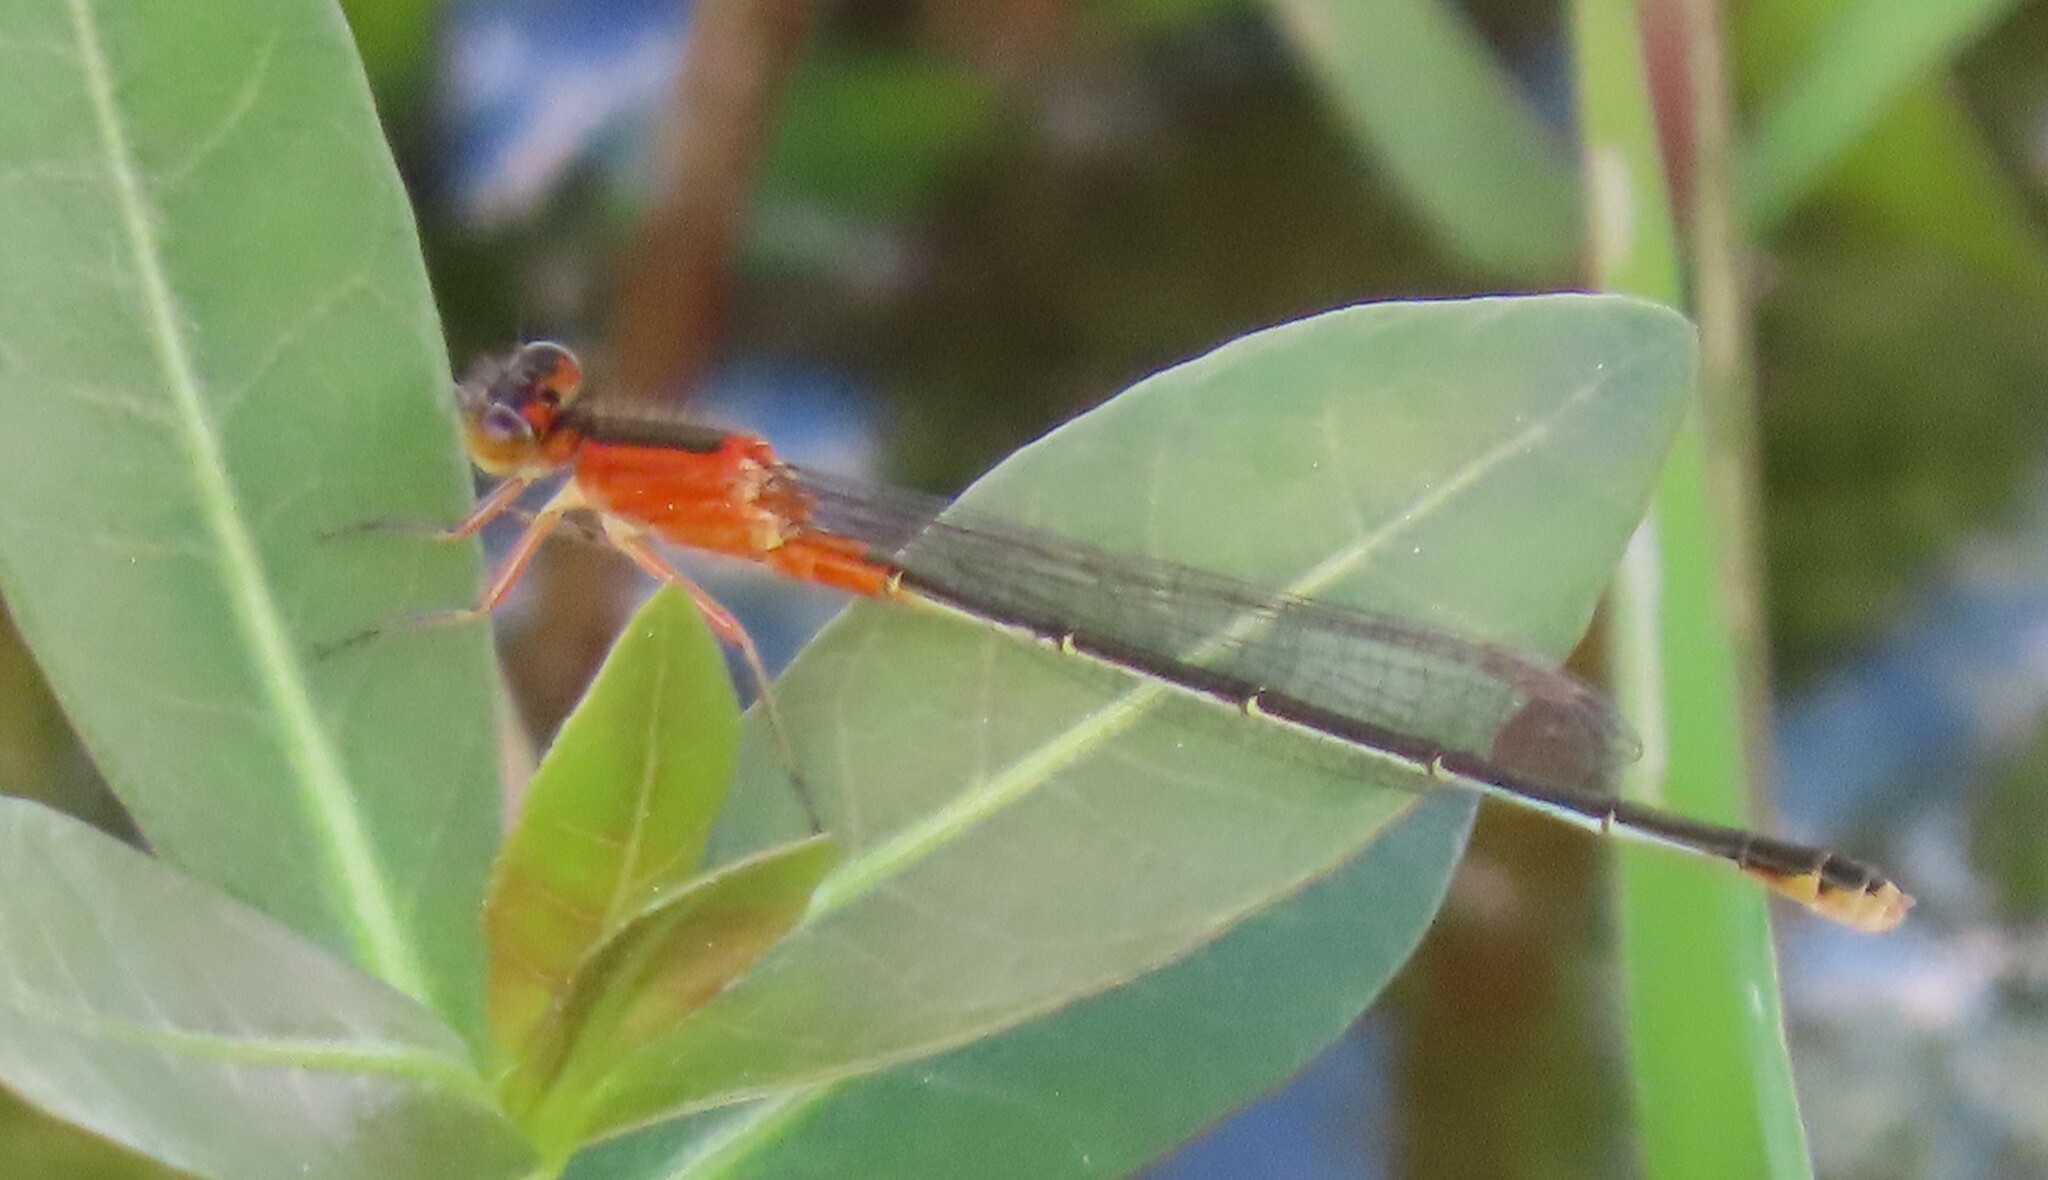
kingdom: Animalia
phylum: Arthropoda
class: Insecta
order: Odonata
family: Coenagrionidae
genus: Ischnura
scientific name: Ischnura ramburii
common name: Rambur's forktail
